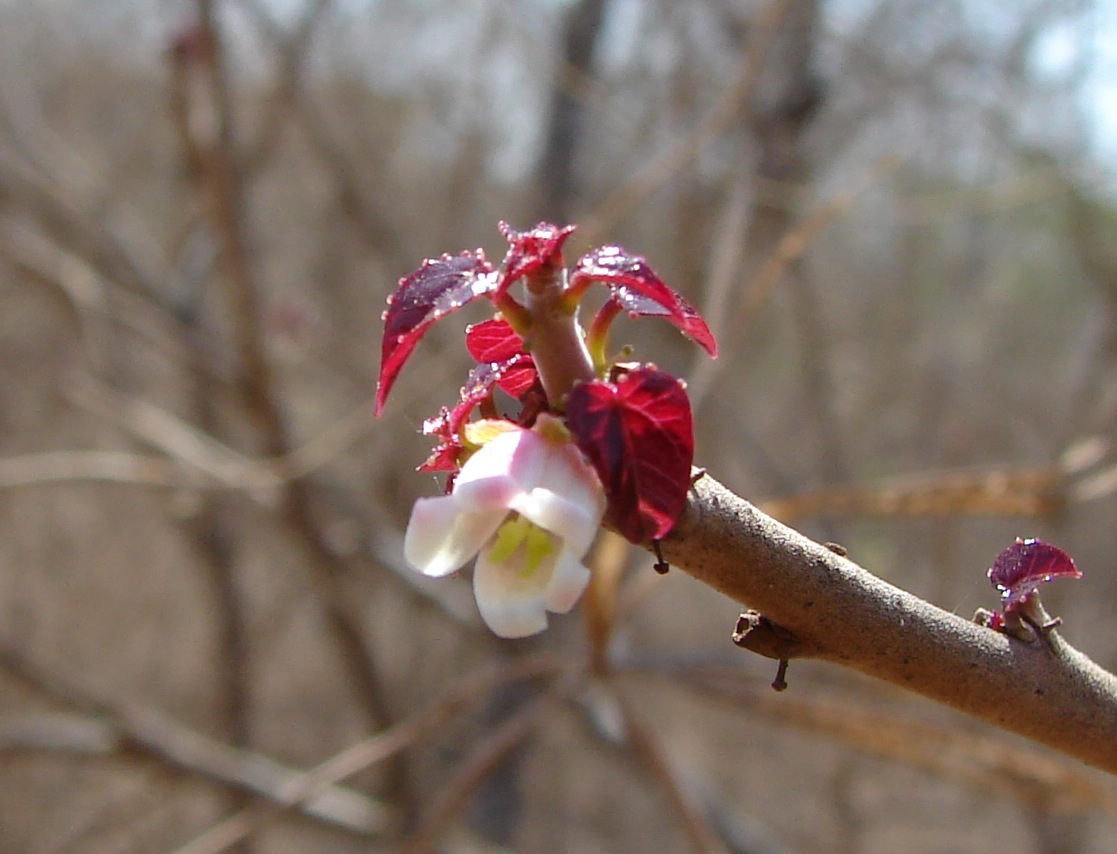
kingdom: Plantae
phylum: Tracheophyta
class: Magnoliopsida
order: Malpighiales
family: Euphorbiaceae
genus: Jatropha
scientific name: Jatropha cordata
